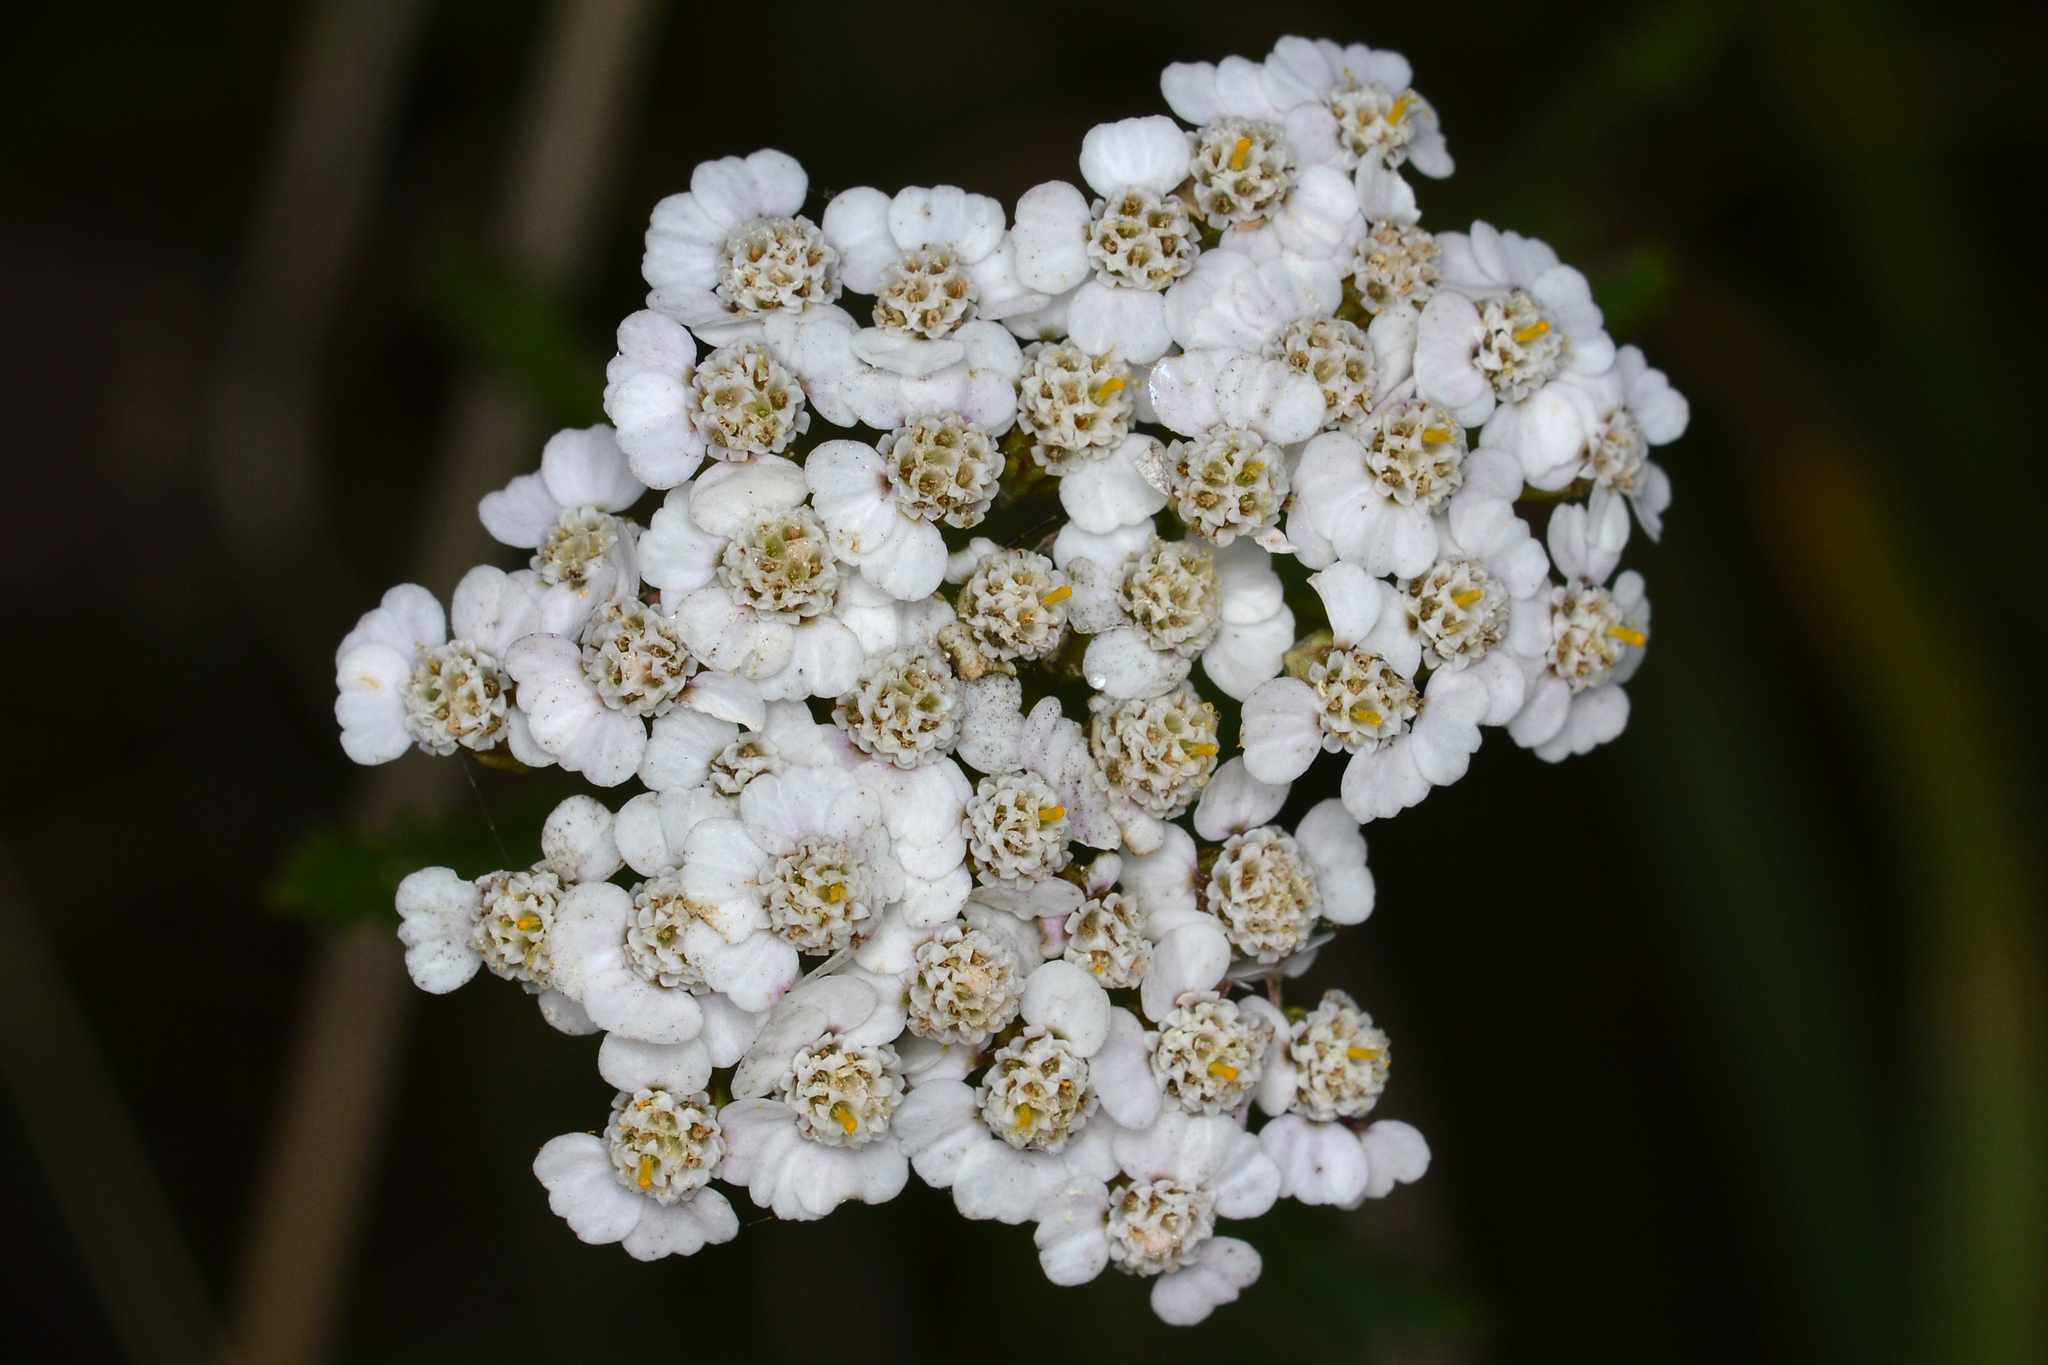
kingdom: Plantae
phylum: Tracheophyta
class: Magnoliopsida
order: Asterales
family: Asteraceae
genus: Achillea
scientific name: Achillea millefolium
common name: Yarrow
